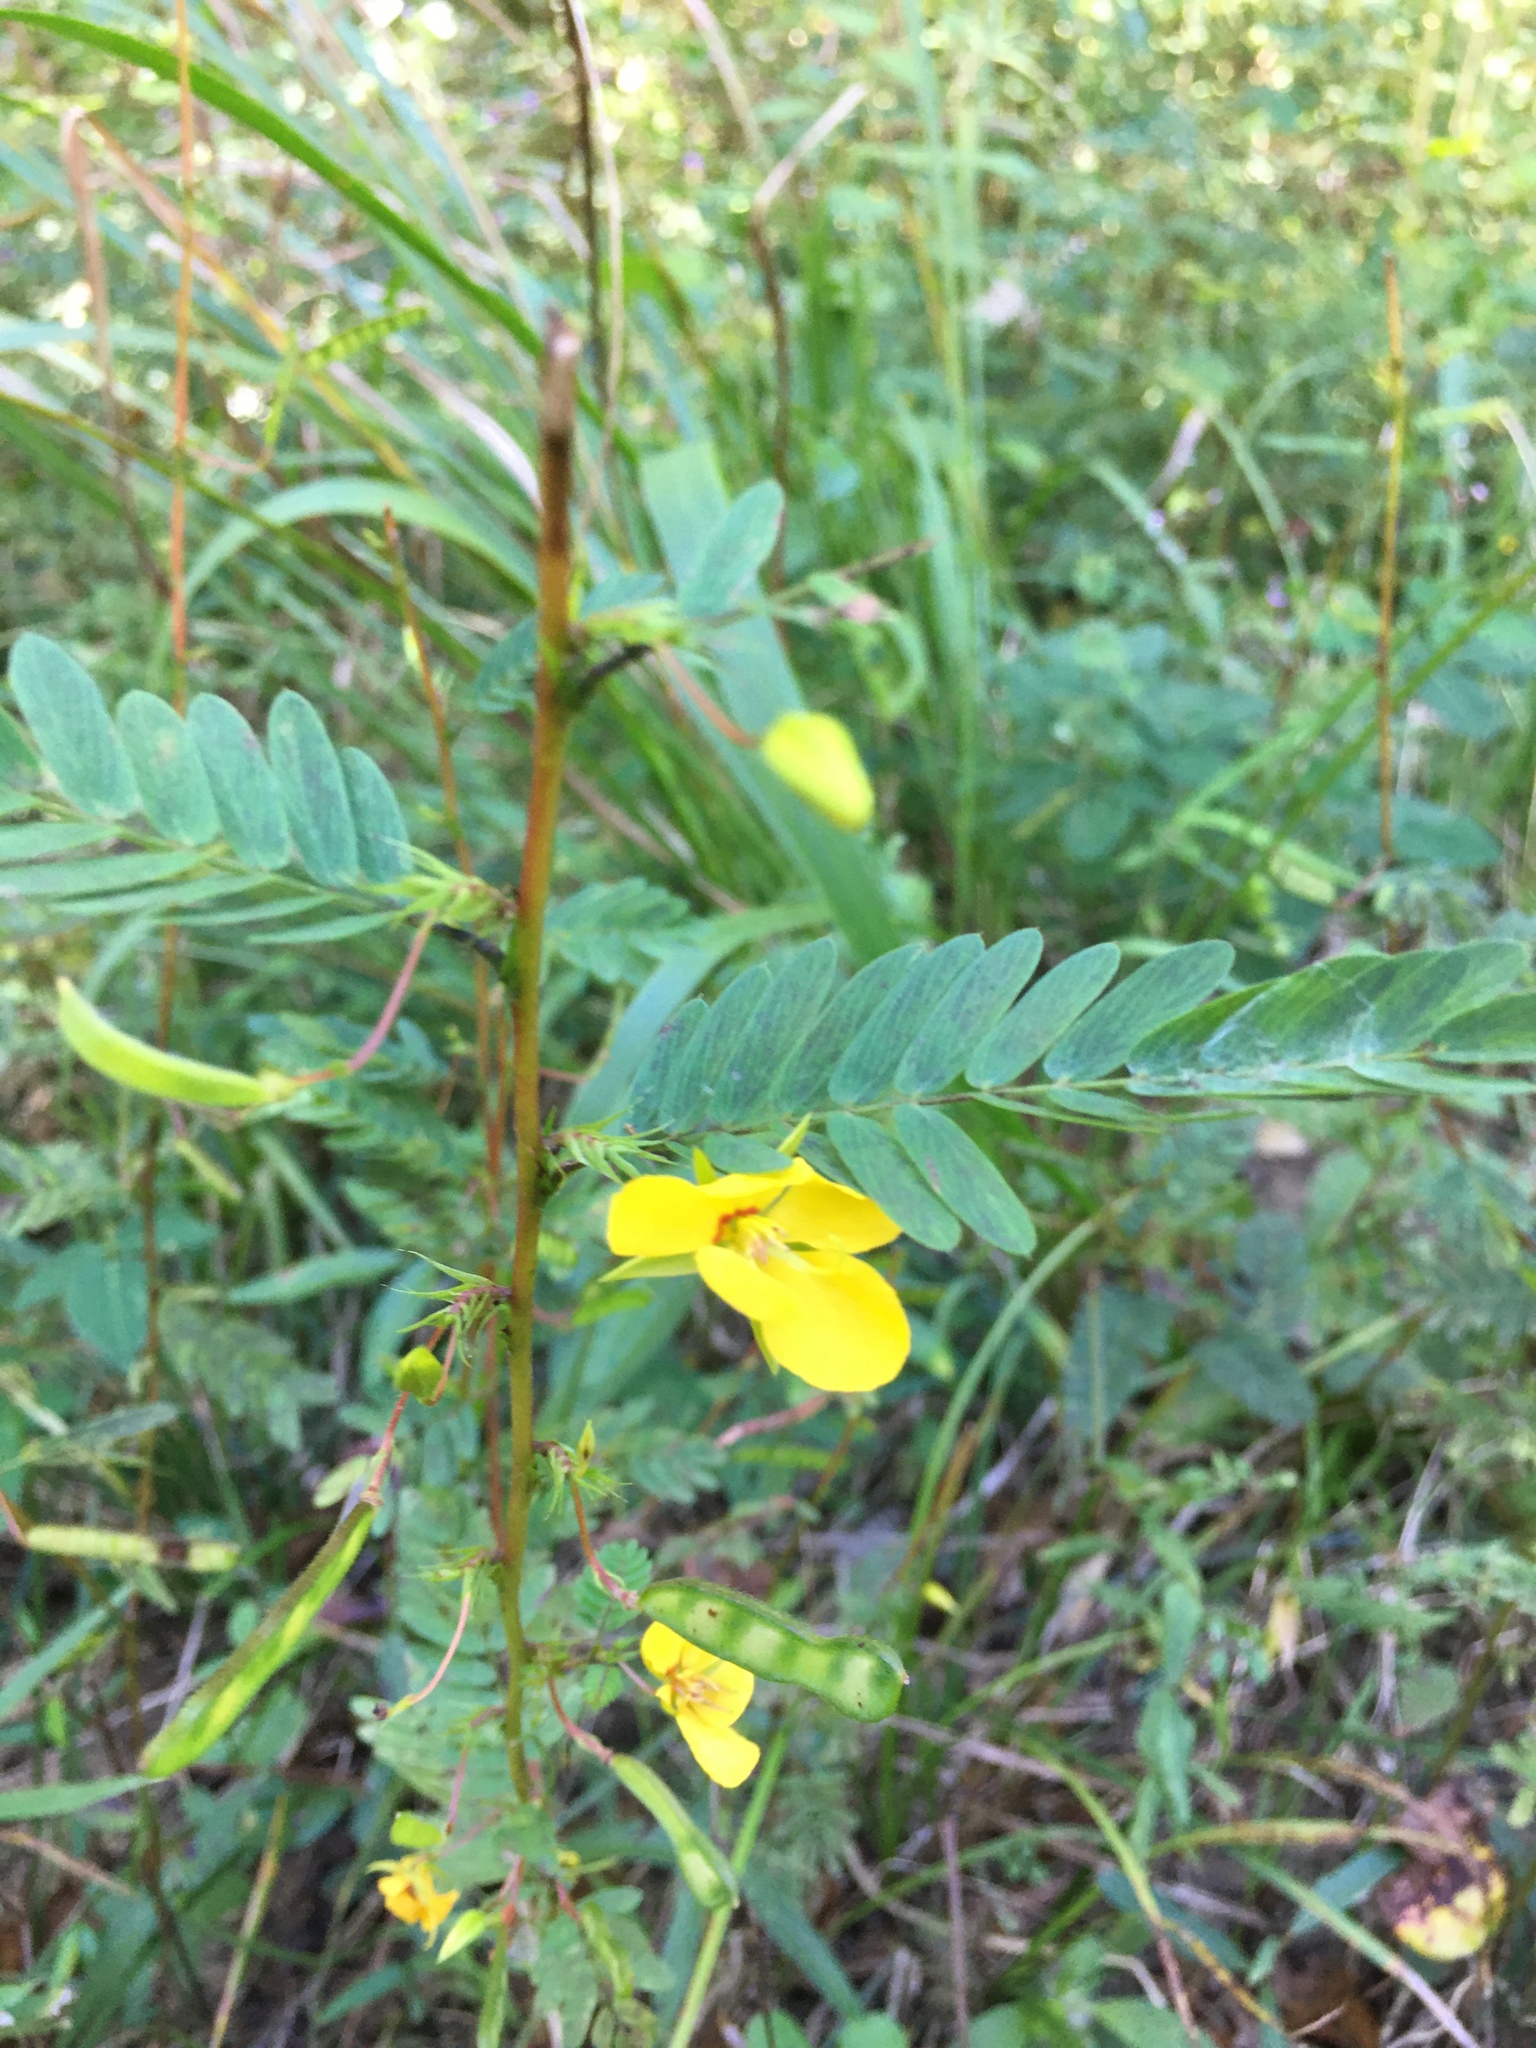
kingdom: Plantae
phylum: Tracheophyta
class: Magnoliopsida
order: Fabales
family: Fabaceae
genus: Chamaecrista
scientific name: Chamaecrista fasciculata
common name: Golden cassia
